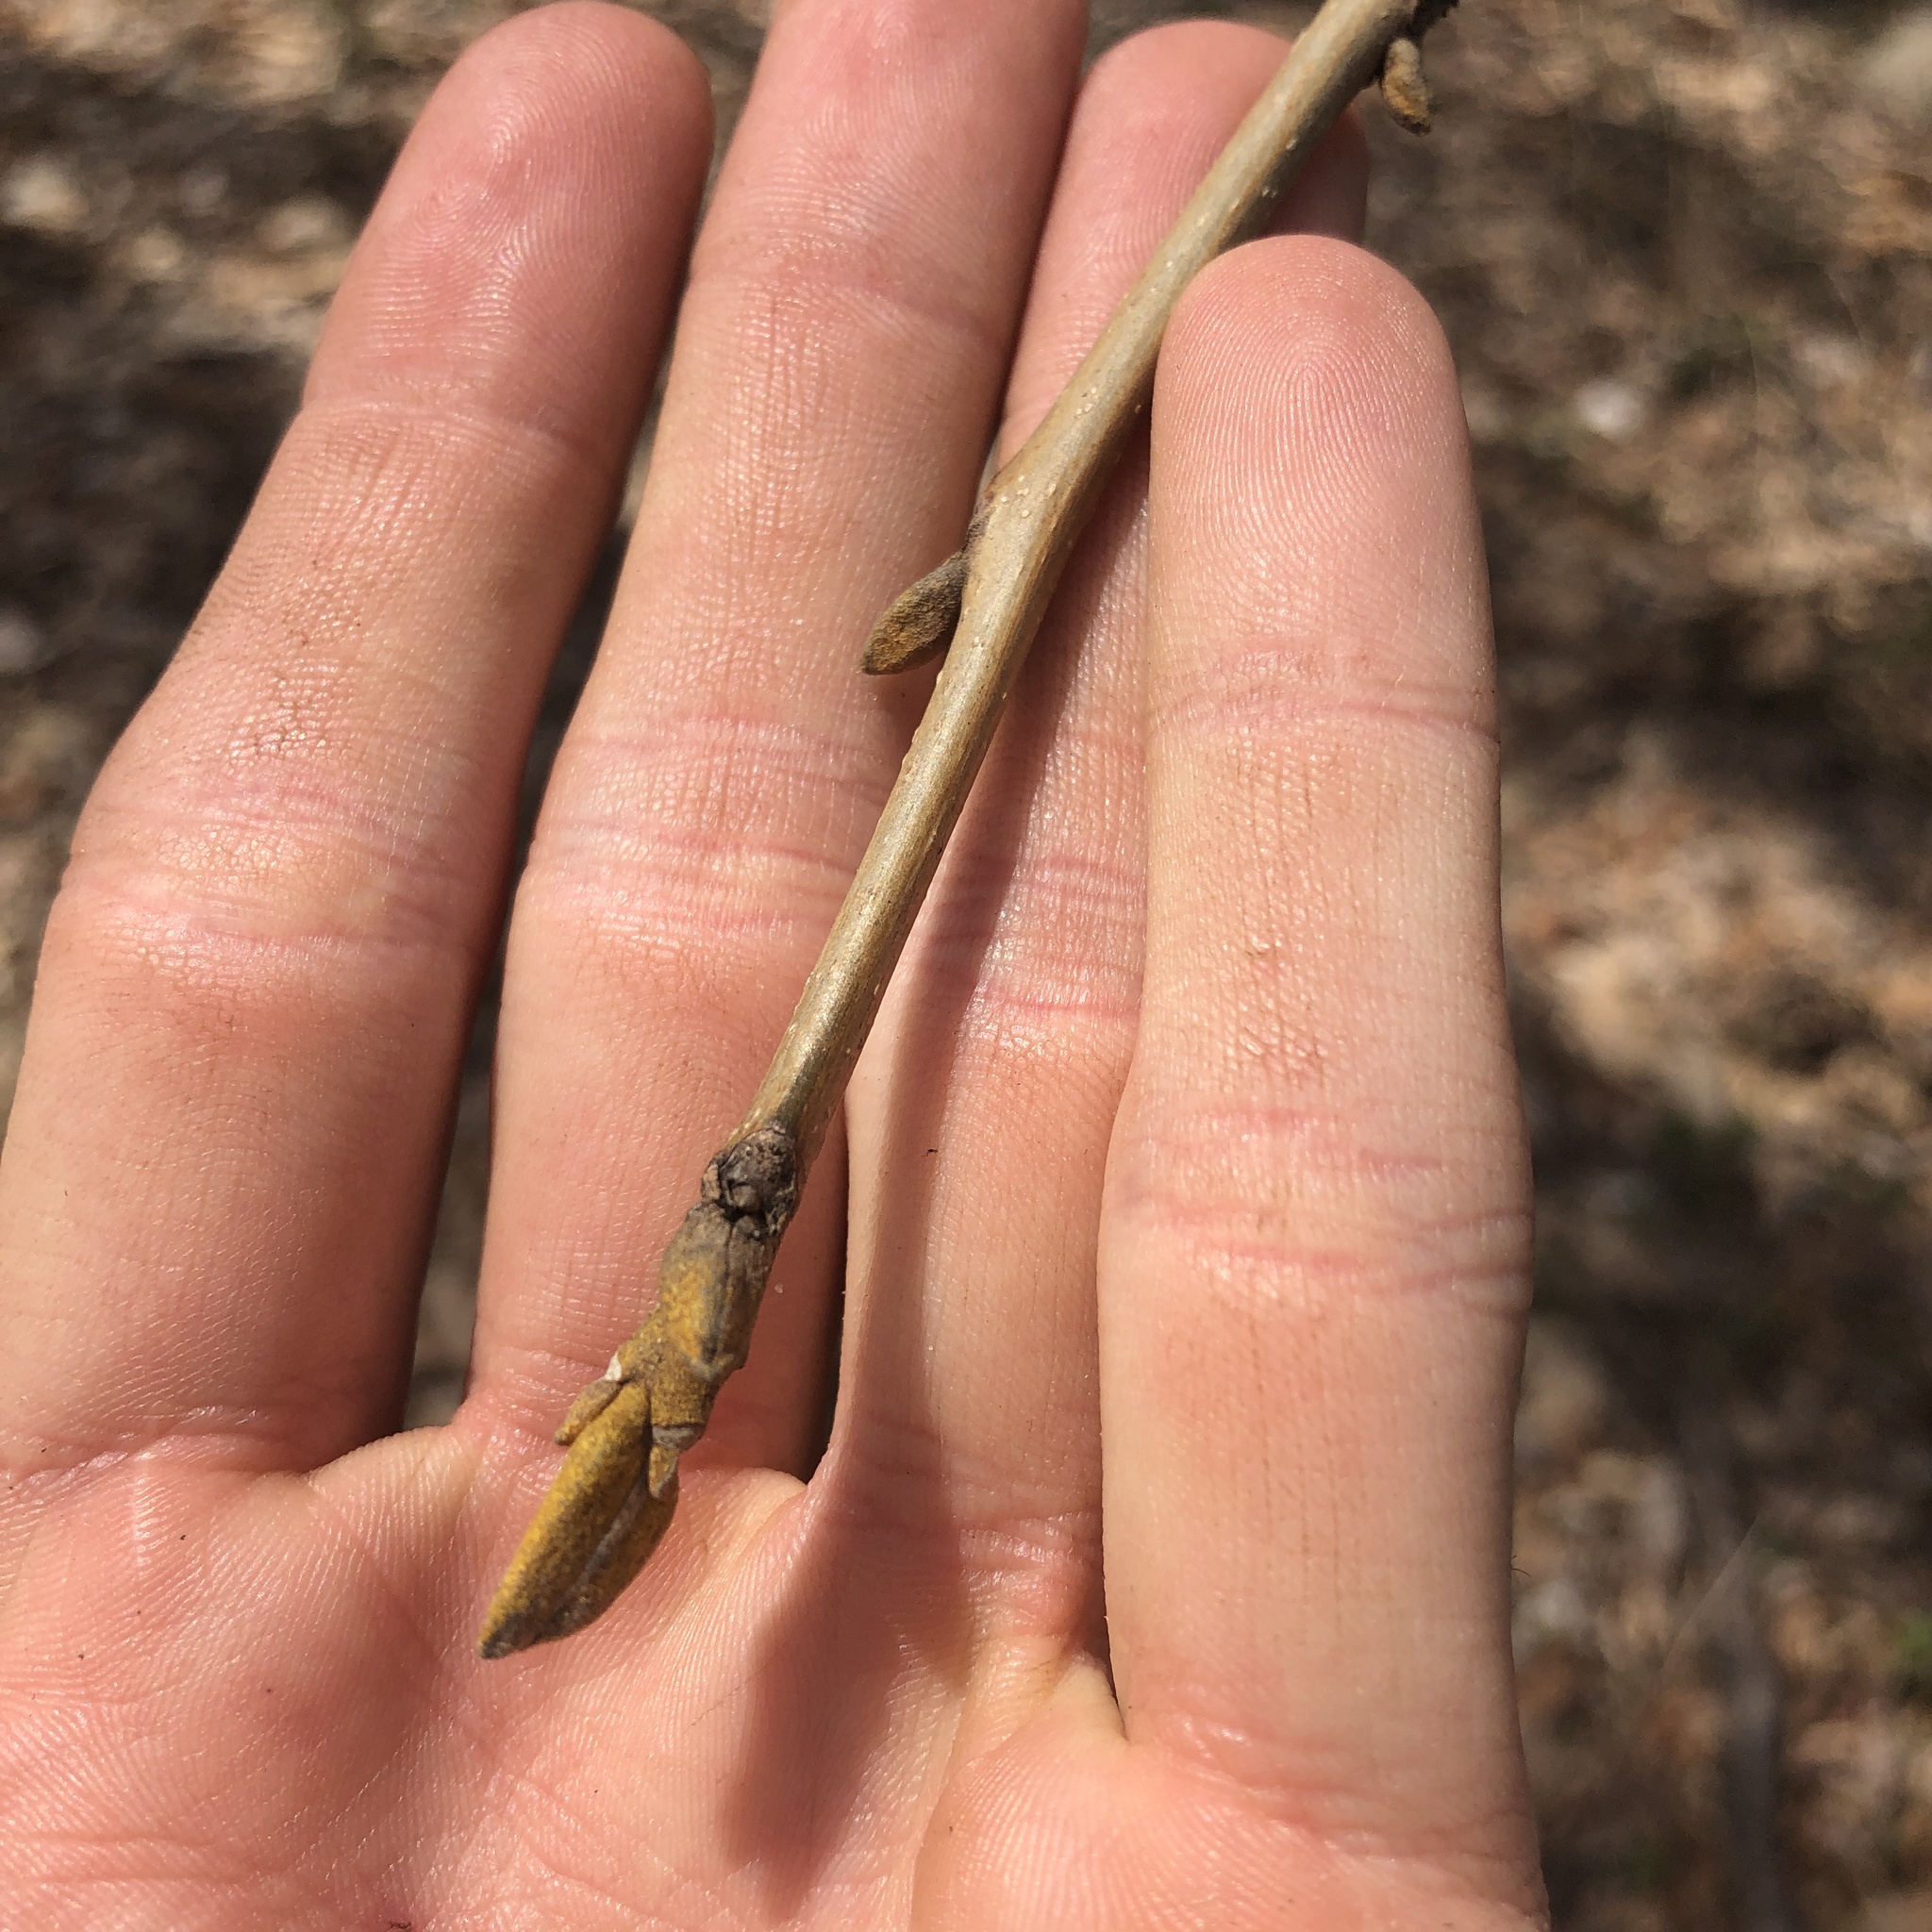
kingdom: Plantae
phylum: Tracheophyta
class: Magnoliopsida
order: Fagales
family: Juglandaceae
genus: Carya
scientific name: Carya cordiformis
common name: Bitternut hickory
